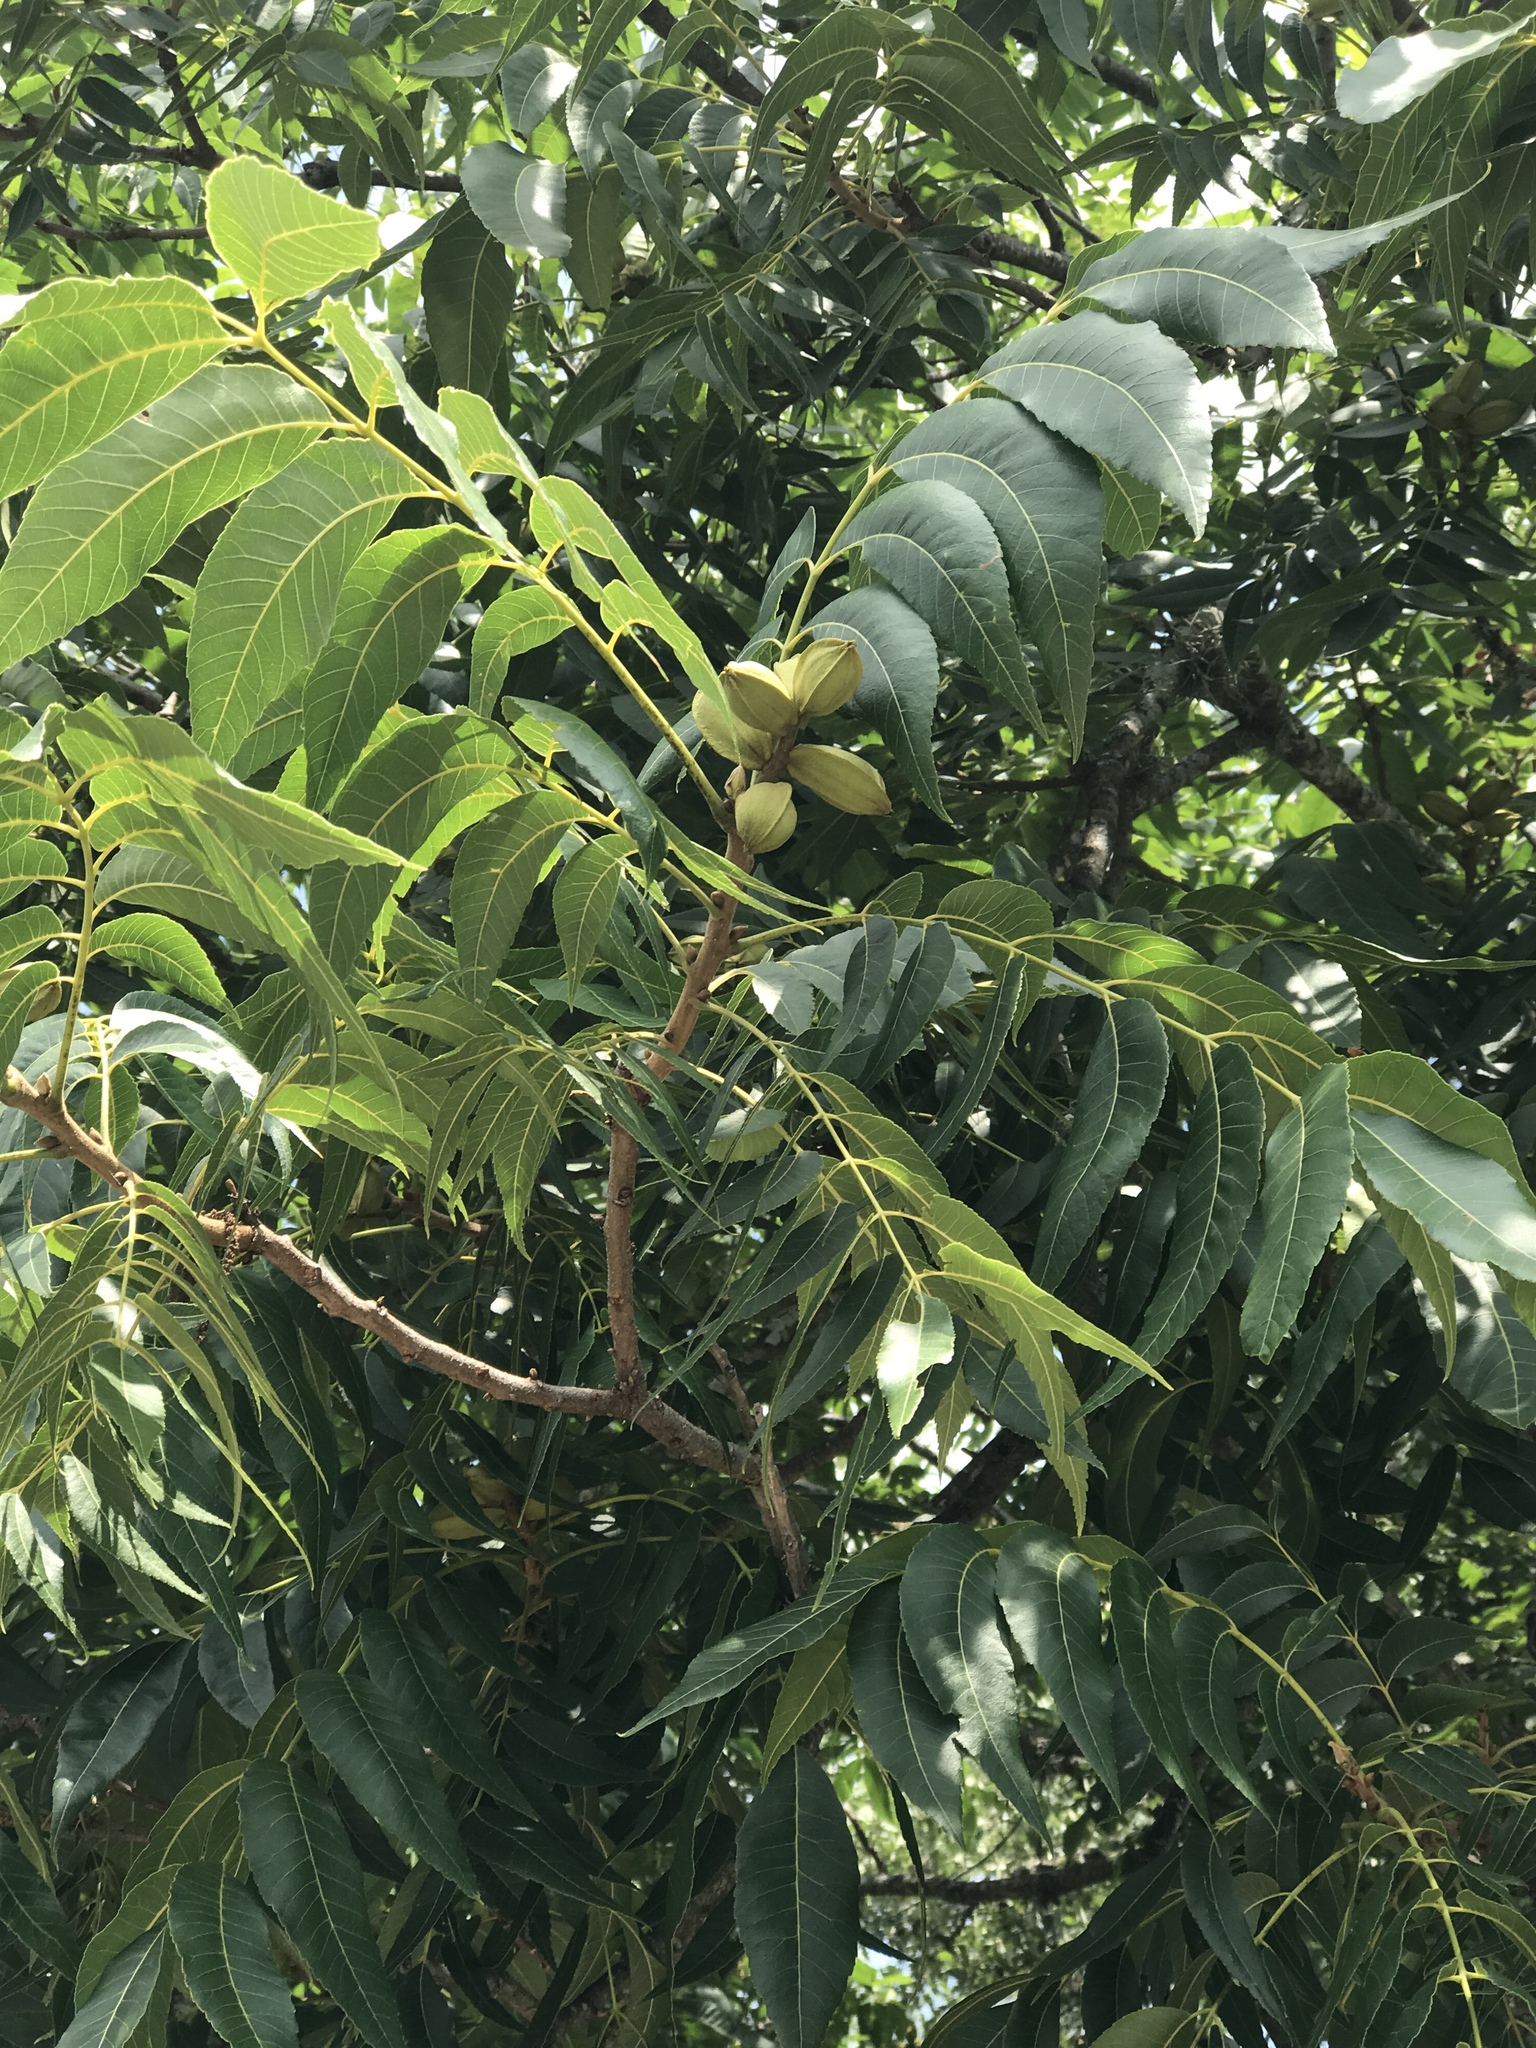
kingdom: Plantae
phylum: Tracheophyta
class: Magnoliopsida
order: Fagales
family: Juglandaceae
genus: Carya
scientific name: Carya illinoinensis
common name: Pecan
